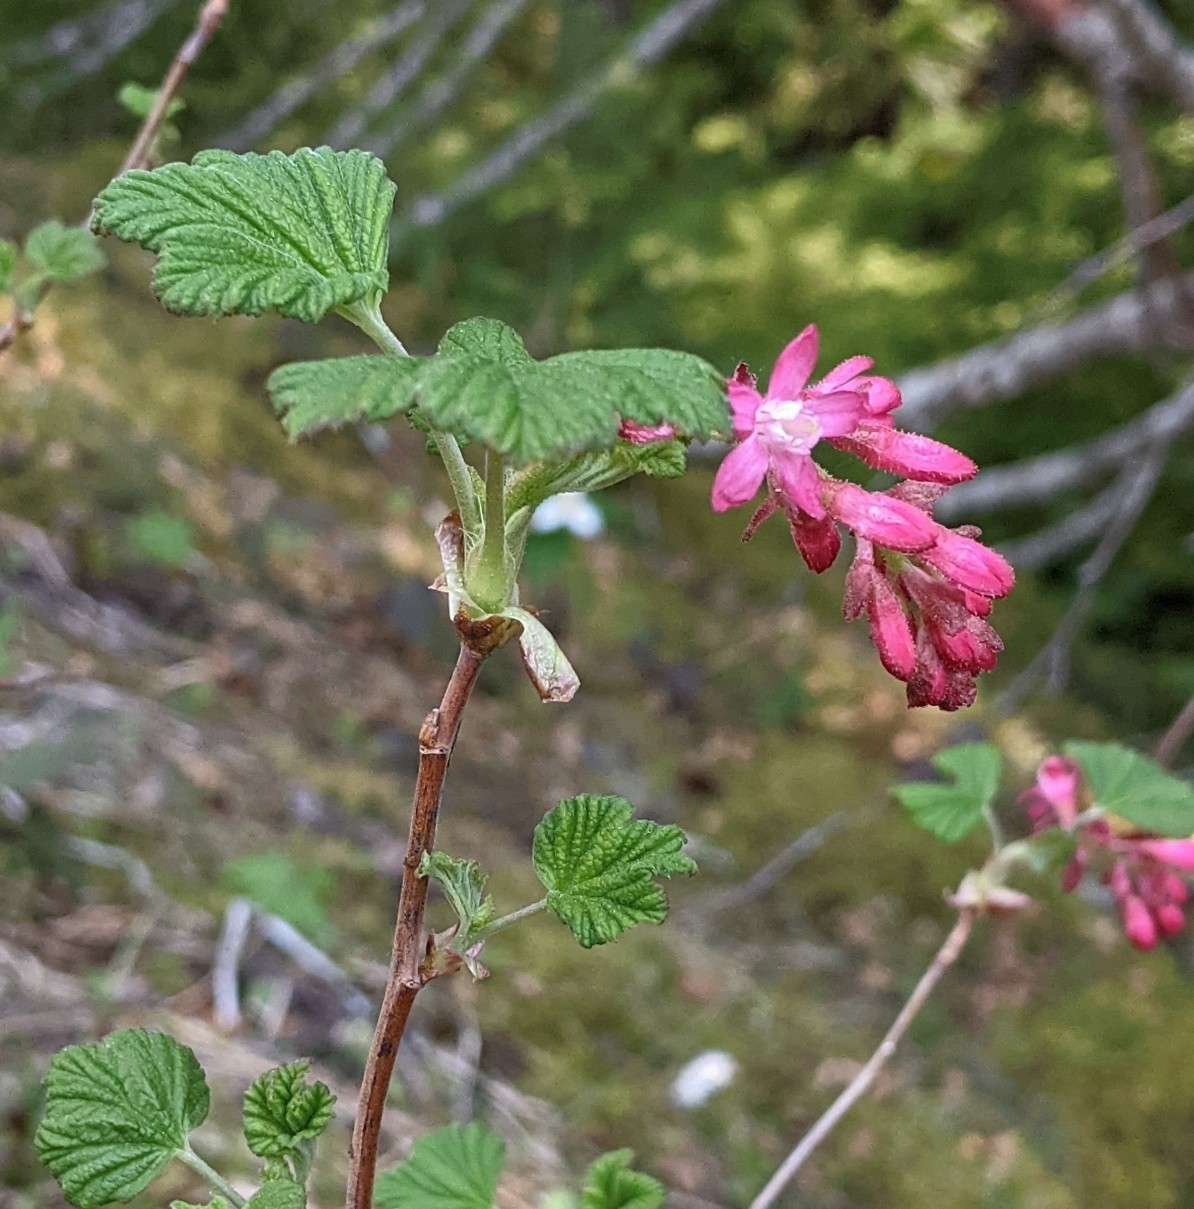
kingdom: Plantae
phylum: Tracheophyta
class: Magnoliopsida
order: Saxifragales
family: Grossulariaceae
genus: Ribes
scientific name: Ribes sanguineum
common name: Flowering currant
